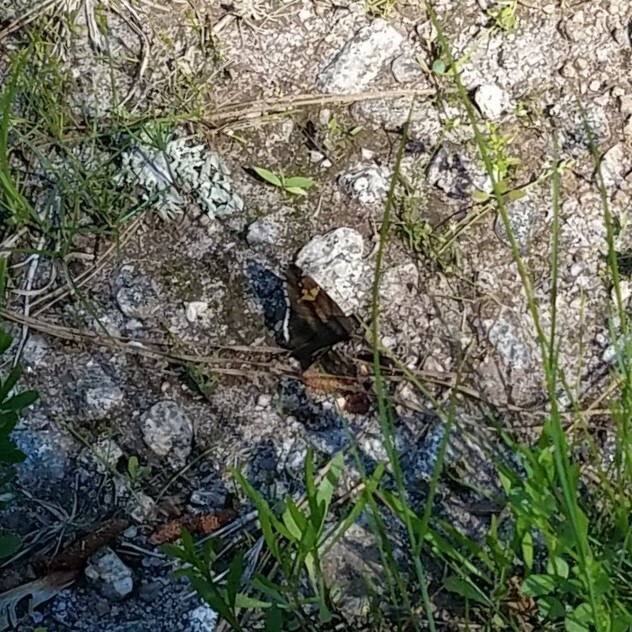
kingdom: Animalia
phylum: Arthropoda
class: Insecta
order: Lepidoptera
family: Hesperiidae
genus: Thorybes
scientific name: Thorybes lyciades
